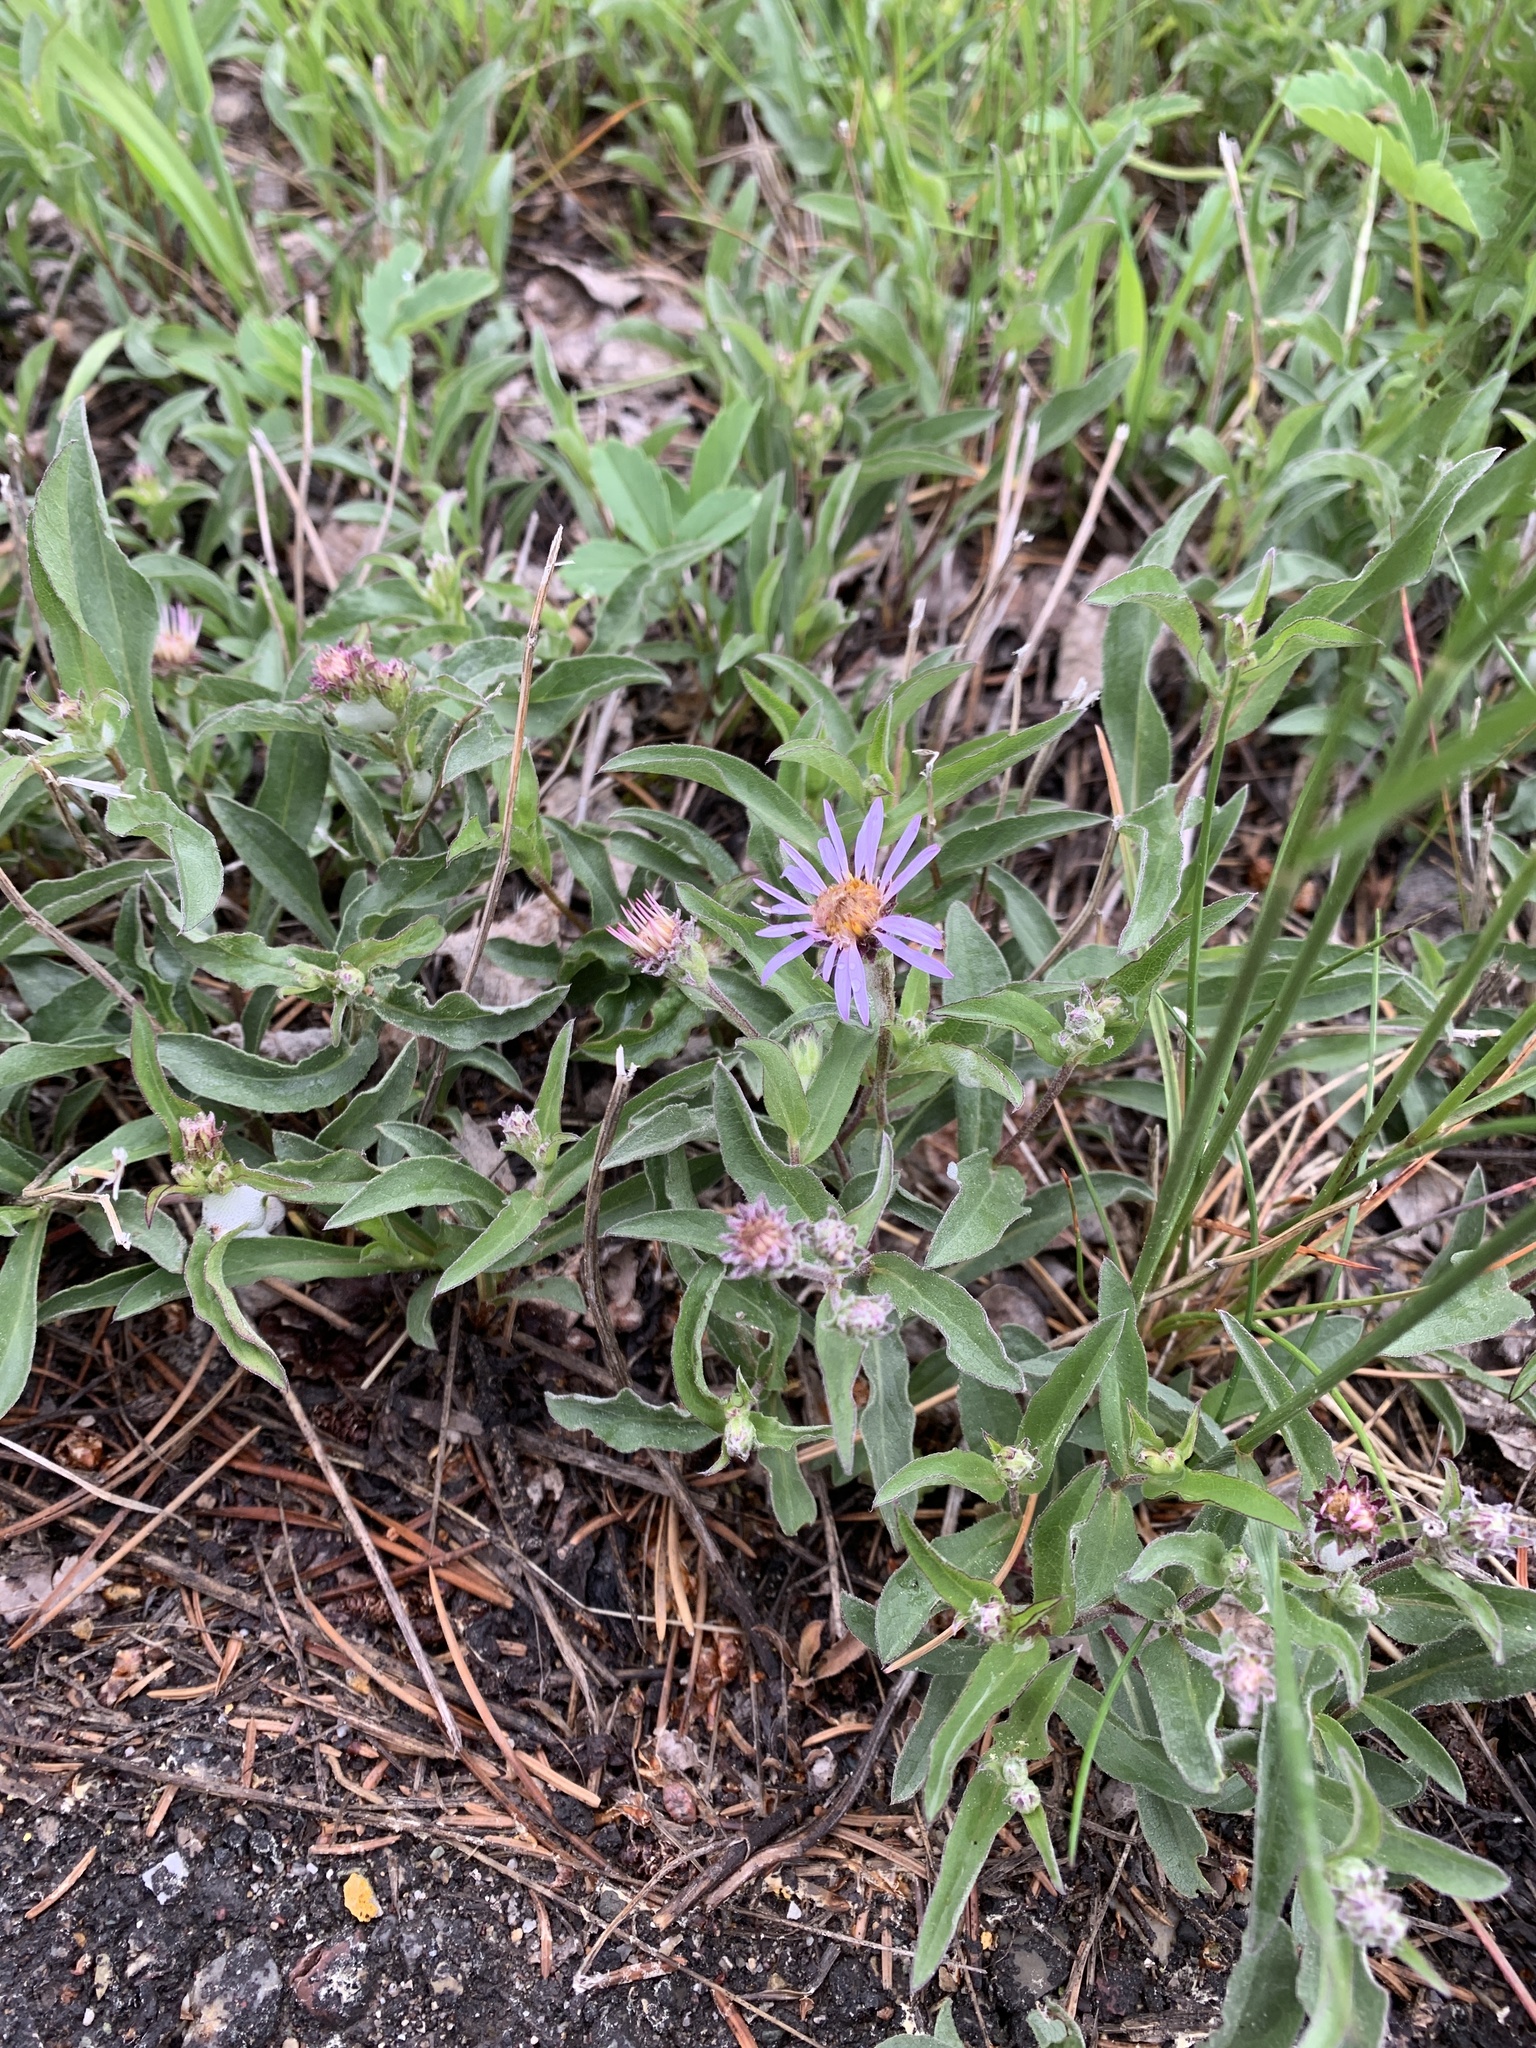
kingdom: Plantae
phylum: Tracheophyta
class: Magnoliopsida
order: Asterales
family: Asteraceae
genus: Eurybia
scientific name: Eurybia sibirica
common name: Arctic aster
